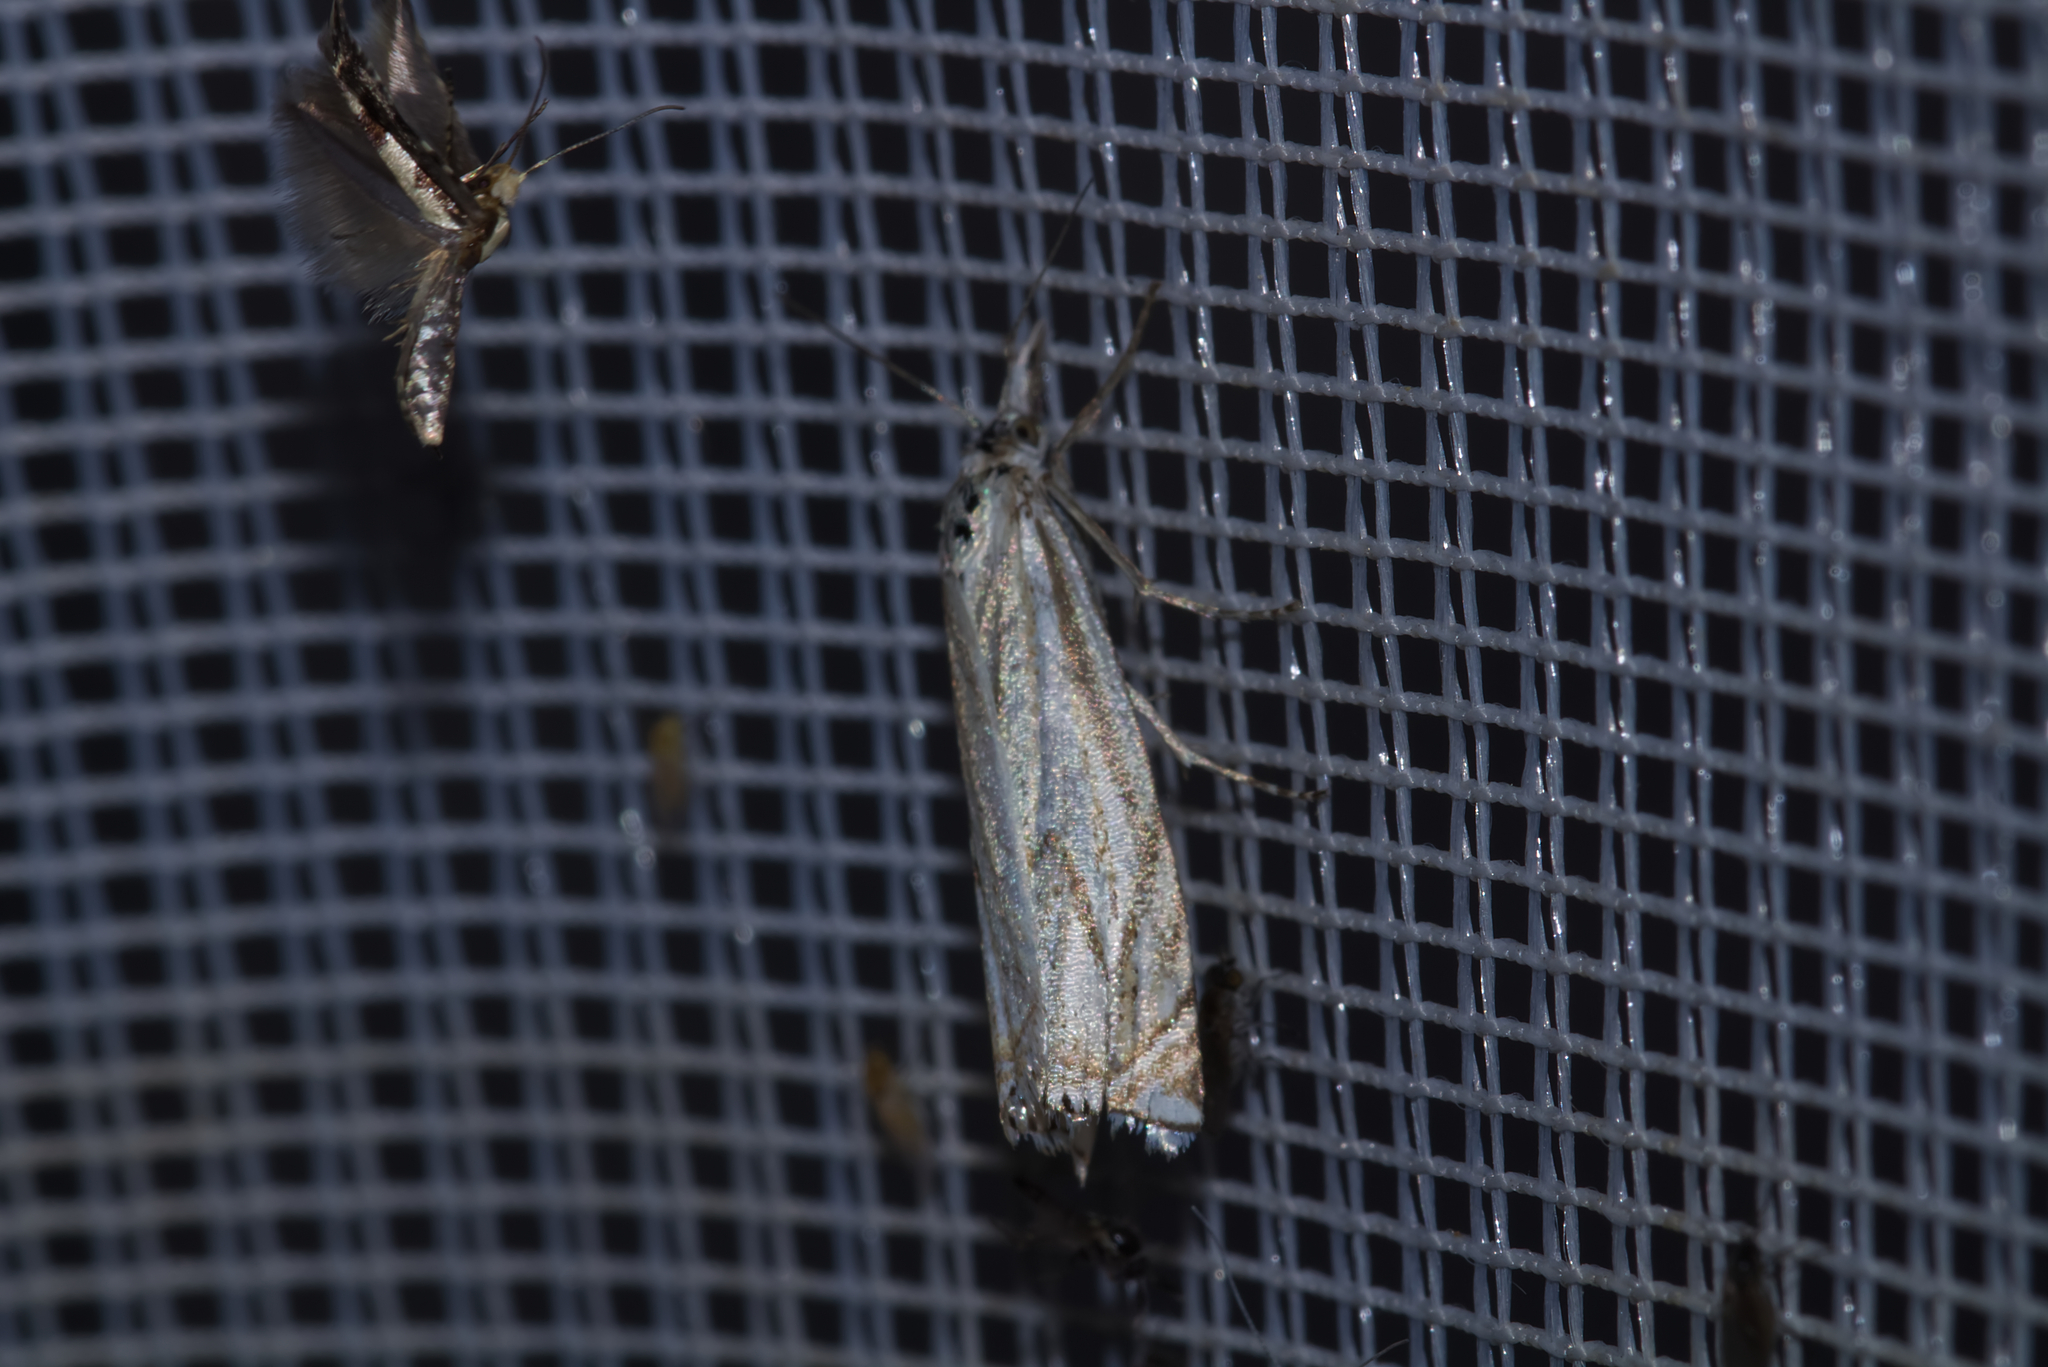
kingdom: Animalia
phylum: Arthropoda
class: Insecta
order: Lepidoptera
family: Crambidae
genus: Crambus
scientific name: Crambus nemorella
